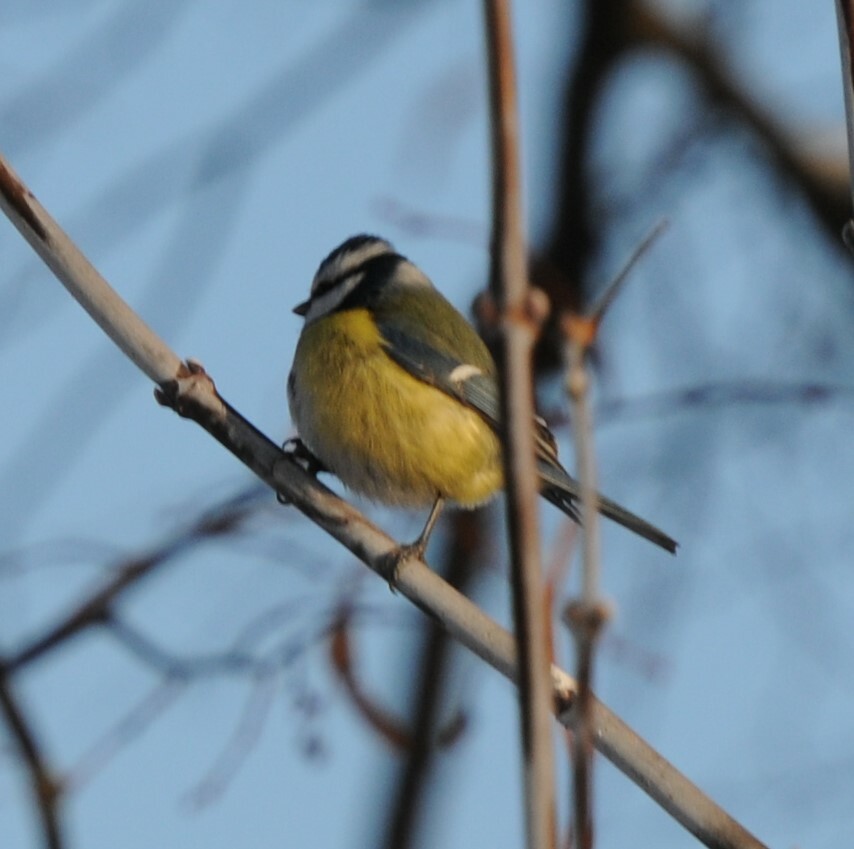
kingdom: Animalia
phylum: Chordata
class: Aves
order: Passeriformes
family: Paridae
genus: Cyanistes
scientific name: Cyanistes caeruleus
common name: Eurasian blue tit
